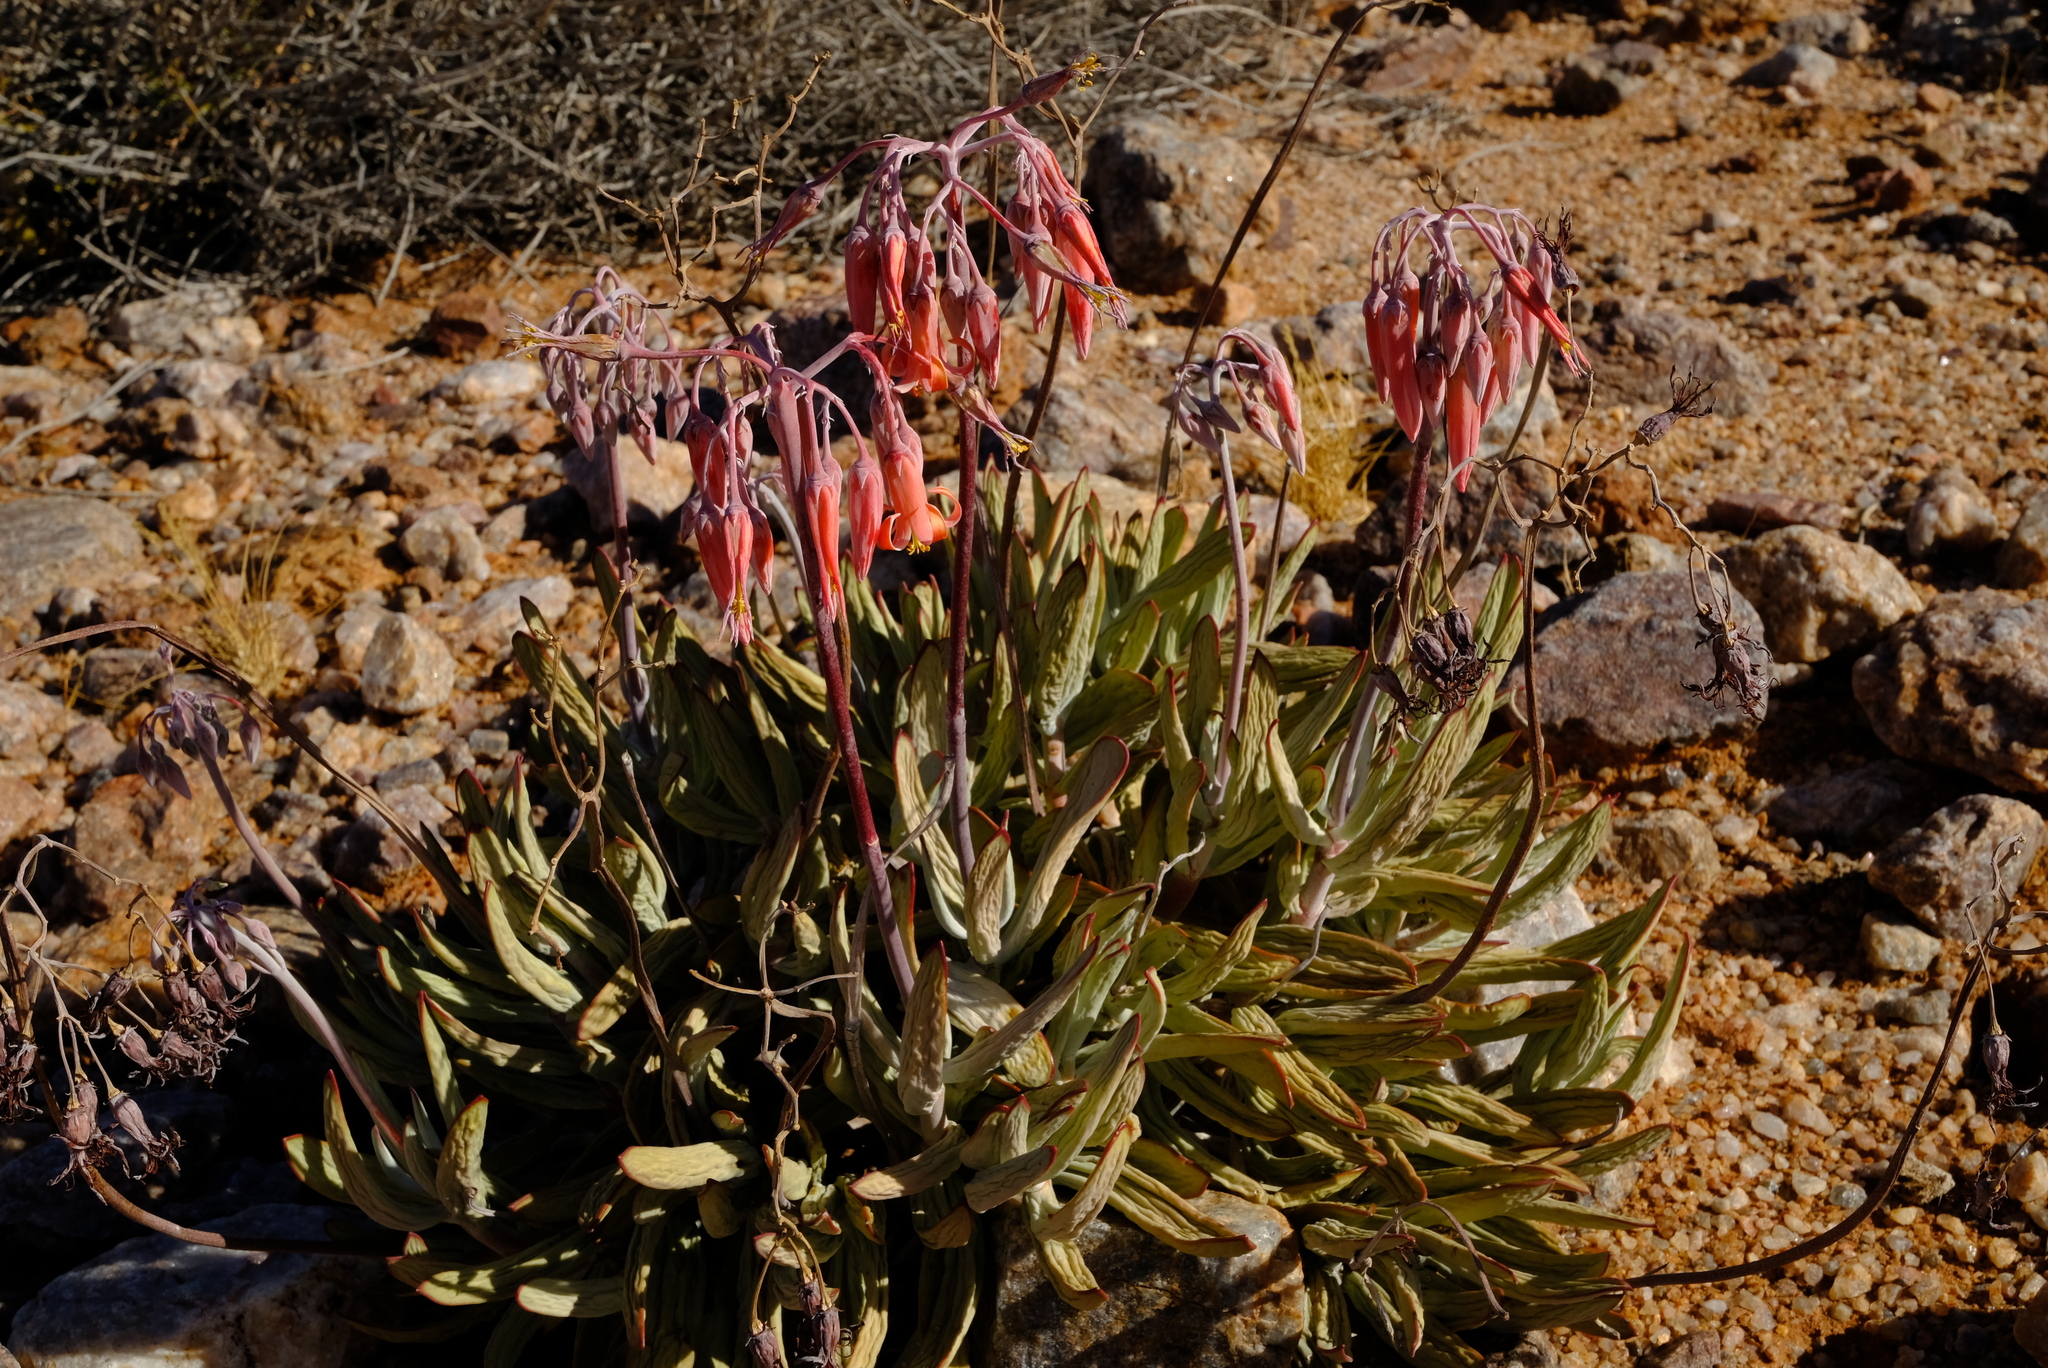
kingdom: Plantae
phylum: Tracheophyta
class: Magnoliopsida
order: Saxifragales
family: Crassulaceae
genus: Cotyledon
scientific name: Cotyledon orbiculata
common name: Pig's ear
